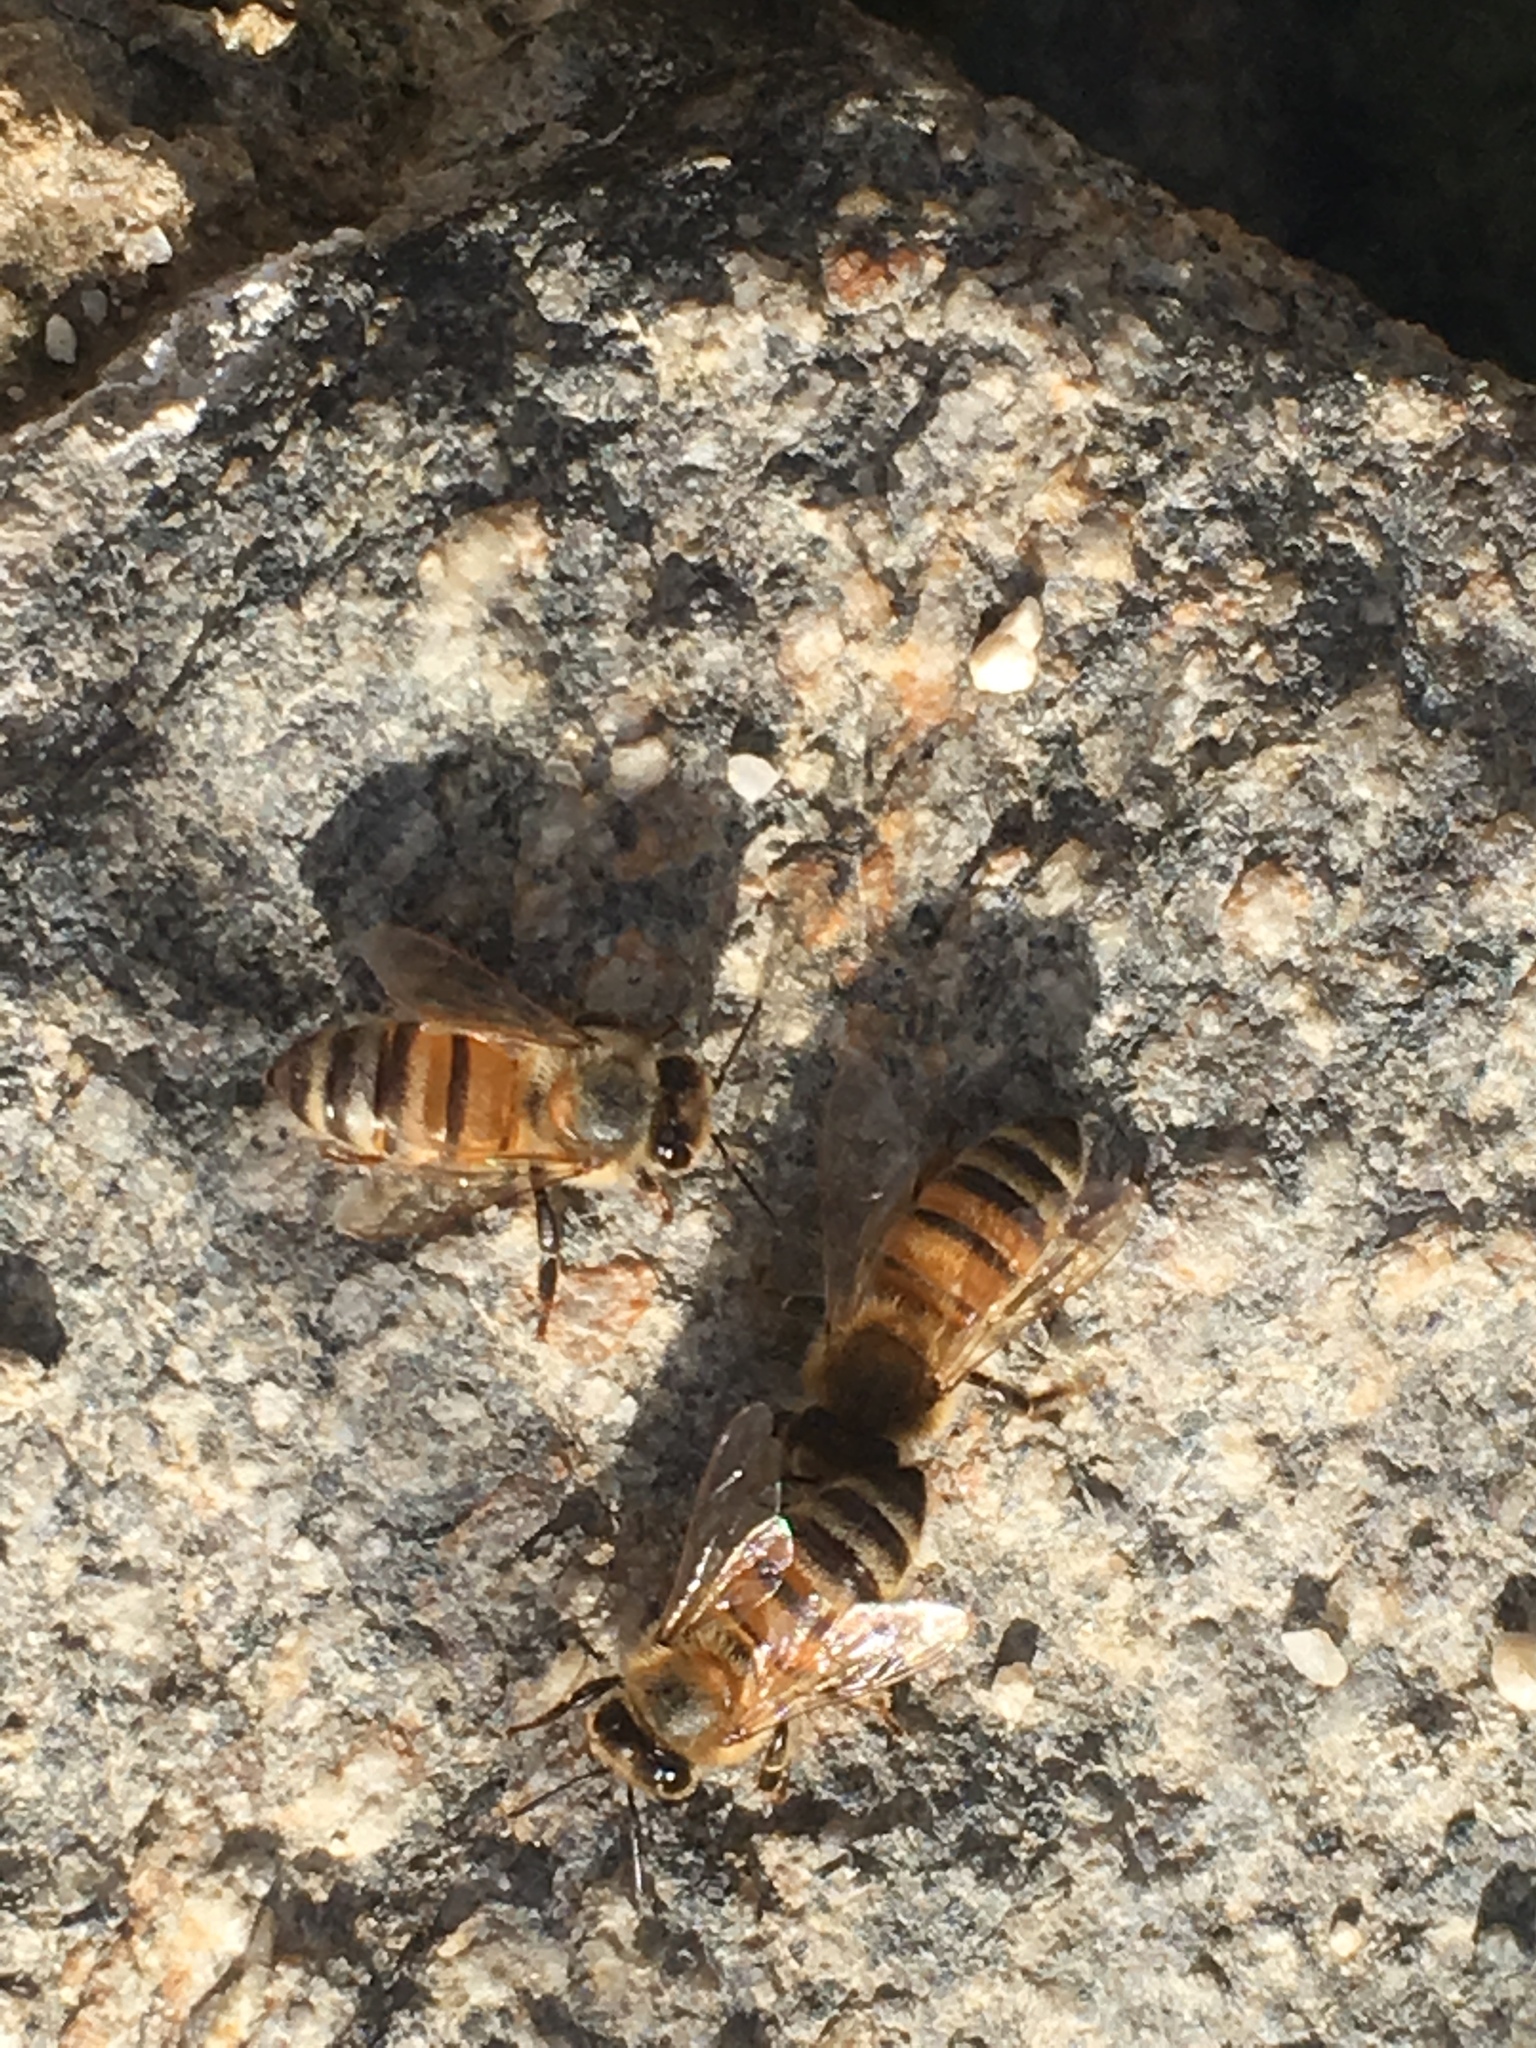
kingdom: Animalia
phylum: Arthropoda
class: Insecta
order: Hymenoptera
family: Apidae
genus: Apis
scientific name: Apis mellifera
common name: Honey bee
